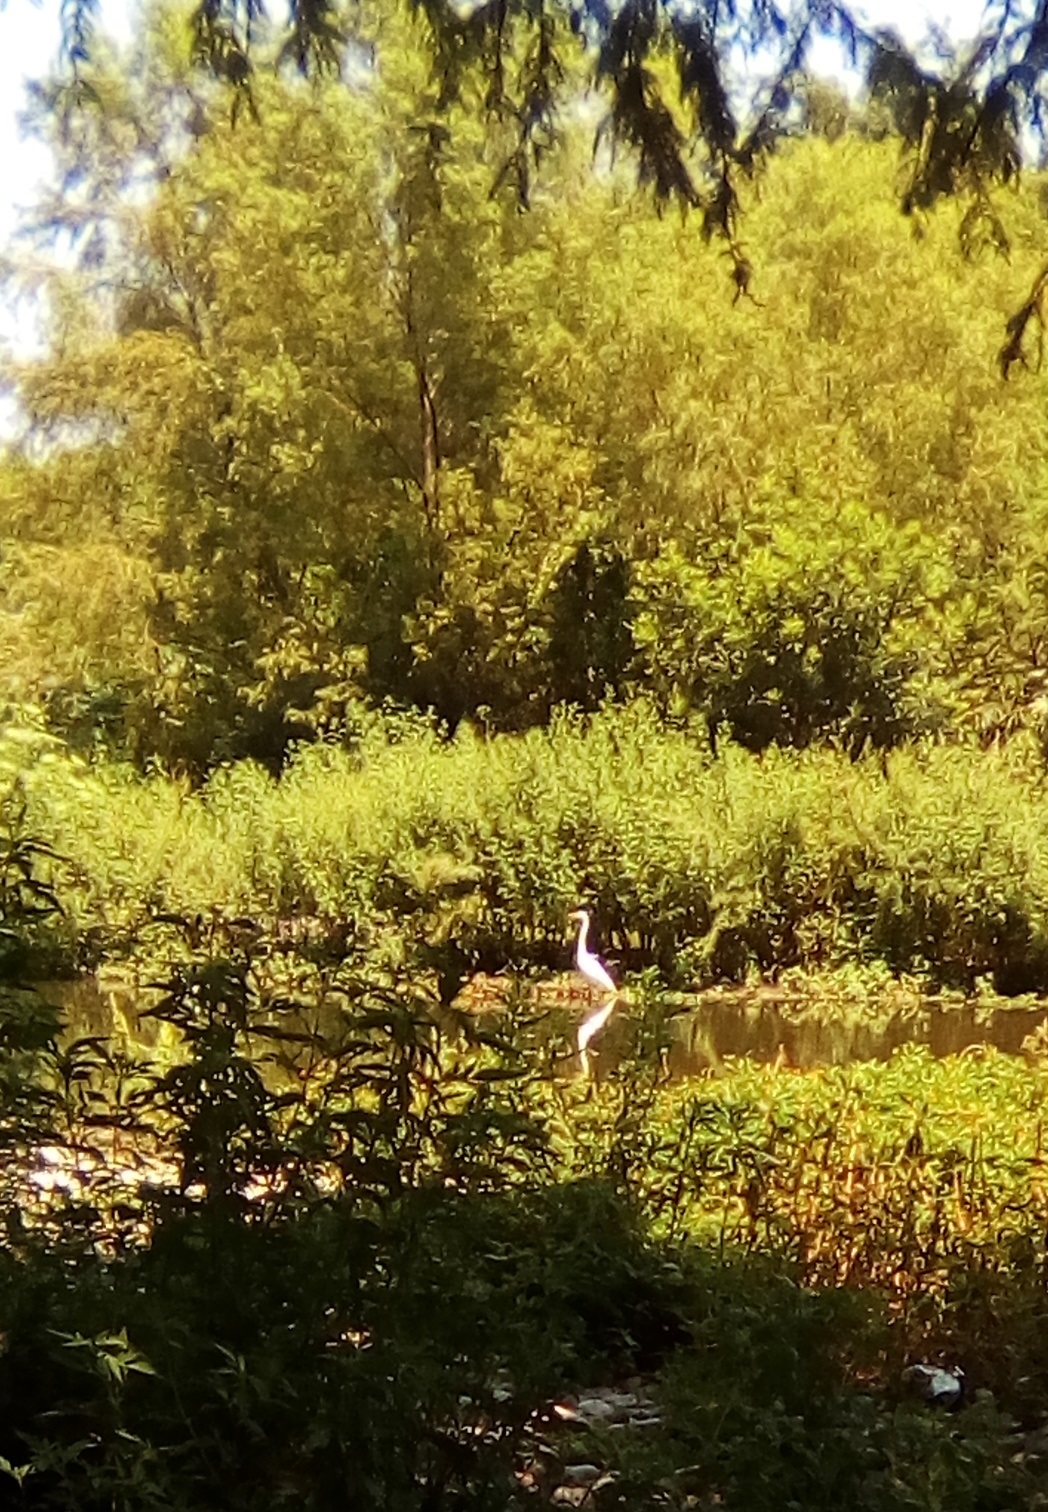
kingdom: Animalia
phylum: Chordata
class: Aves
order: Pelecaniformes
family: Ardeidae
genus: Ardea
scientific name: Ardea alba
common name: Great egret
